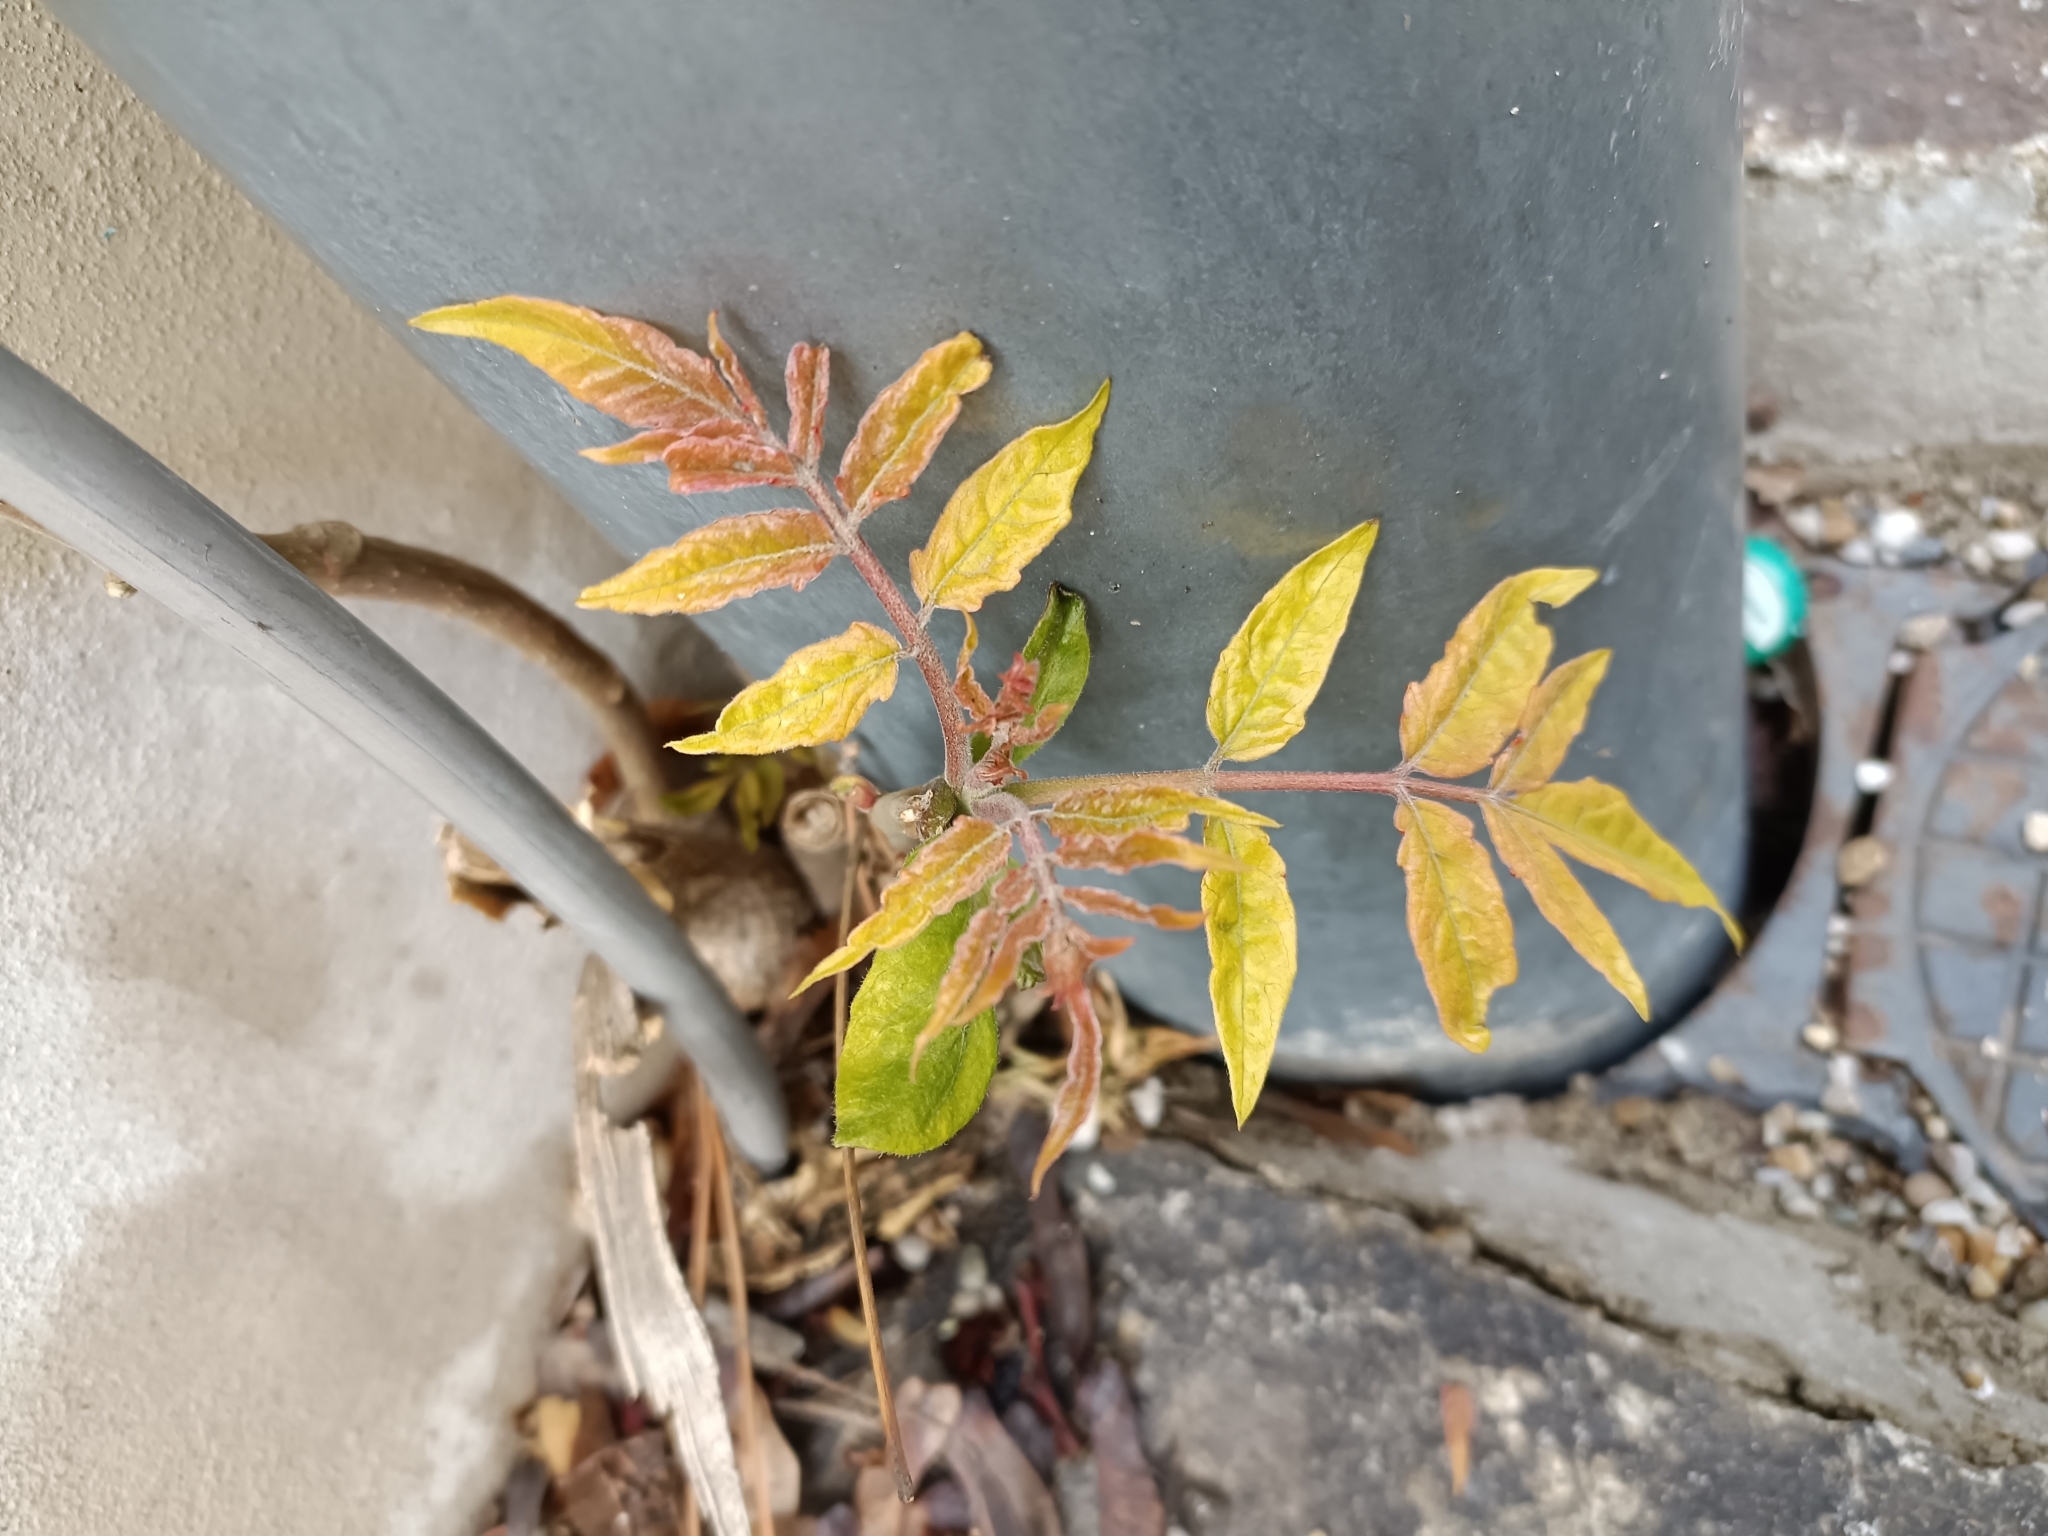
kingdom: Plantae
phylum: Tracheophyta
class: Magnoliopsida
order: Sapindales
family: Simaroubaceae
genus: Ailanthus
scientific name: Ailanthus altissima
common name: Tree-of-heaven
